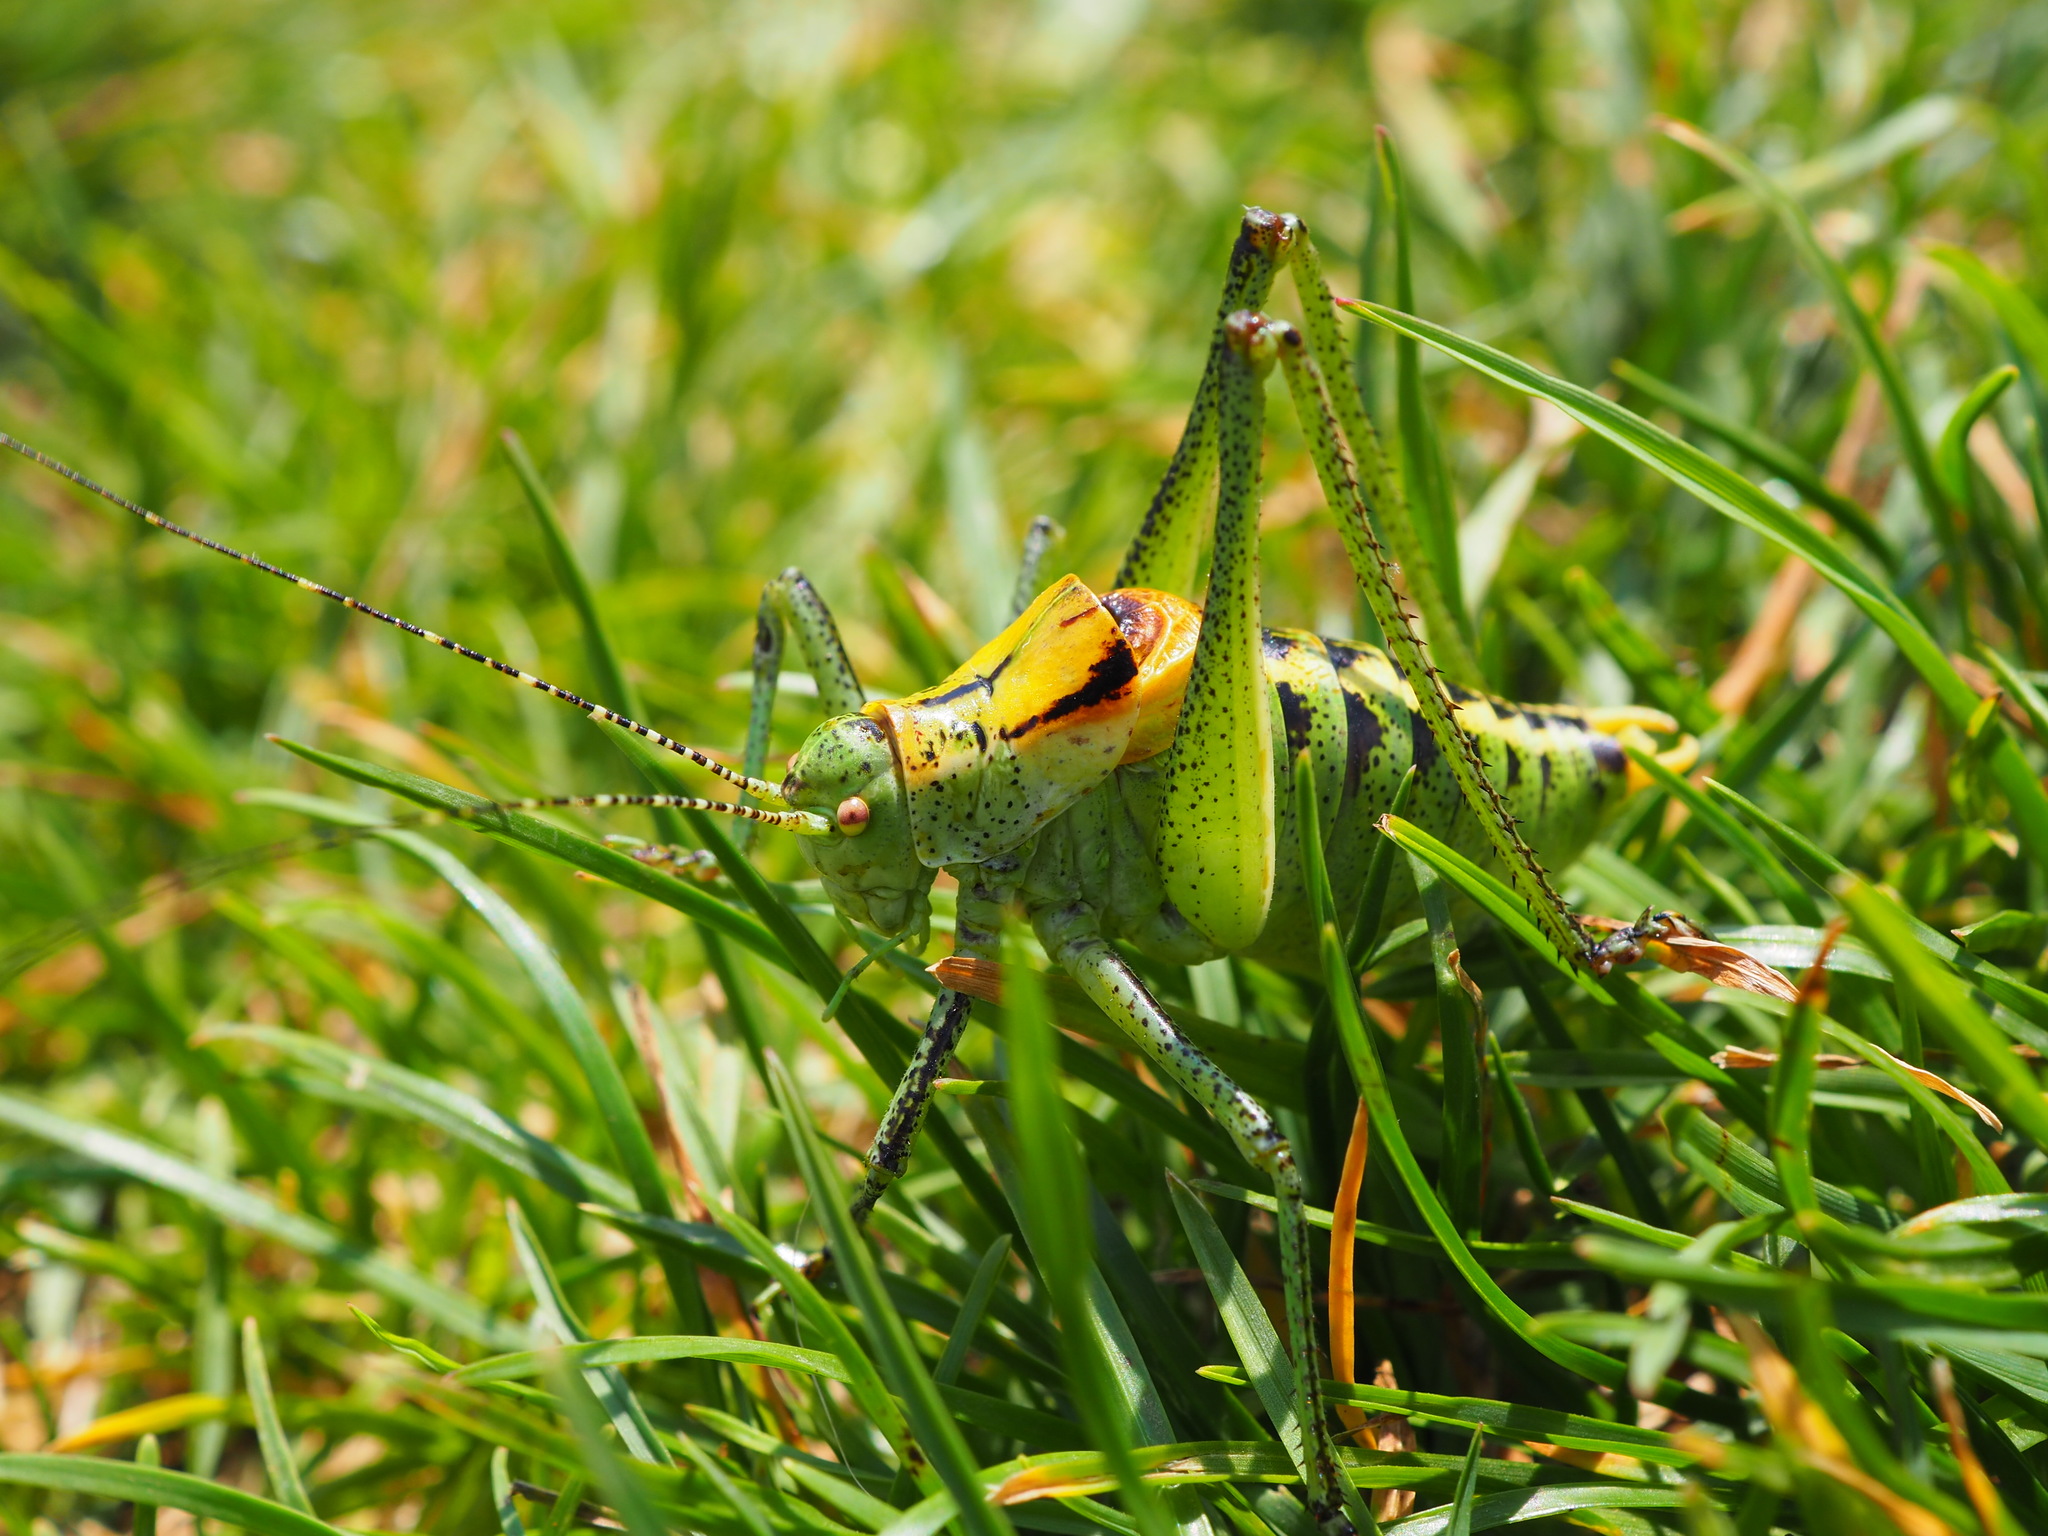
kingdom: Animalia
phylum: Arthropoda
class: Insecta
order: Orthoptera
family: Tettigoniidae
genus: Poecilimon
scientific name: Poecilimon ornatus
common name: Ornate bright bush-cricket
